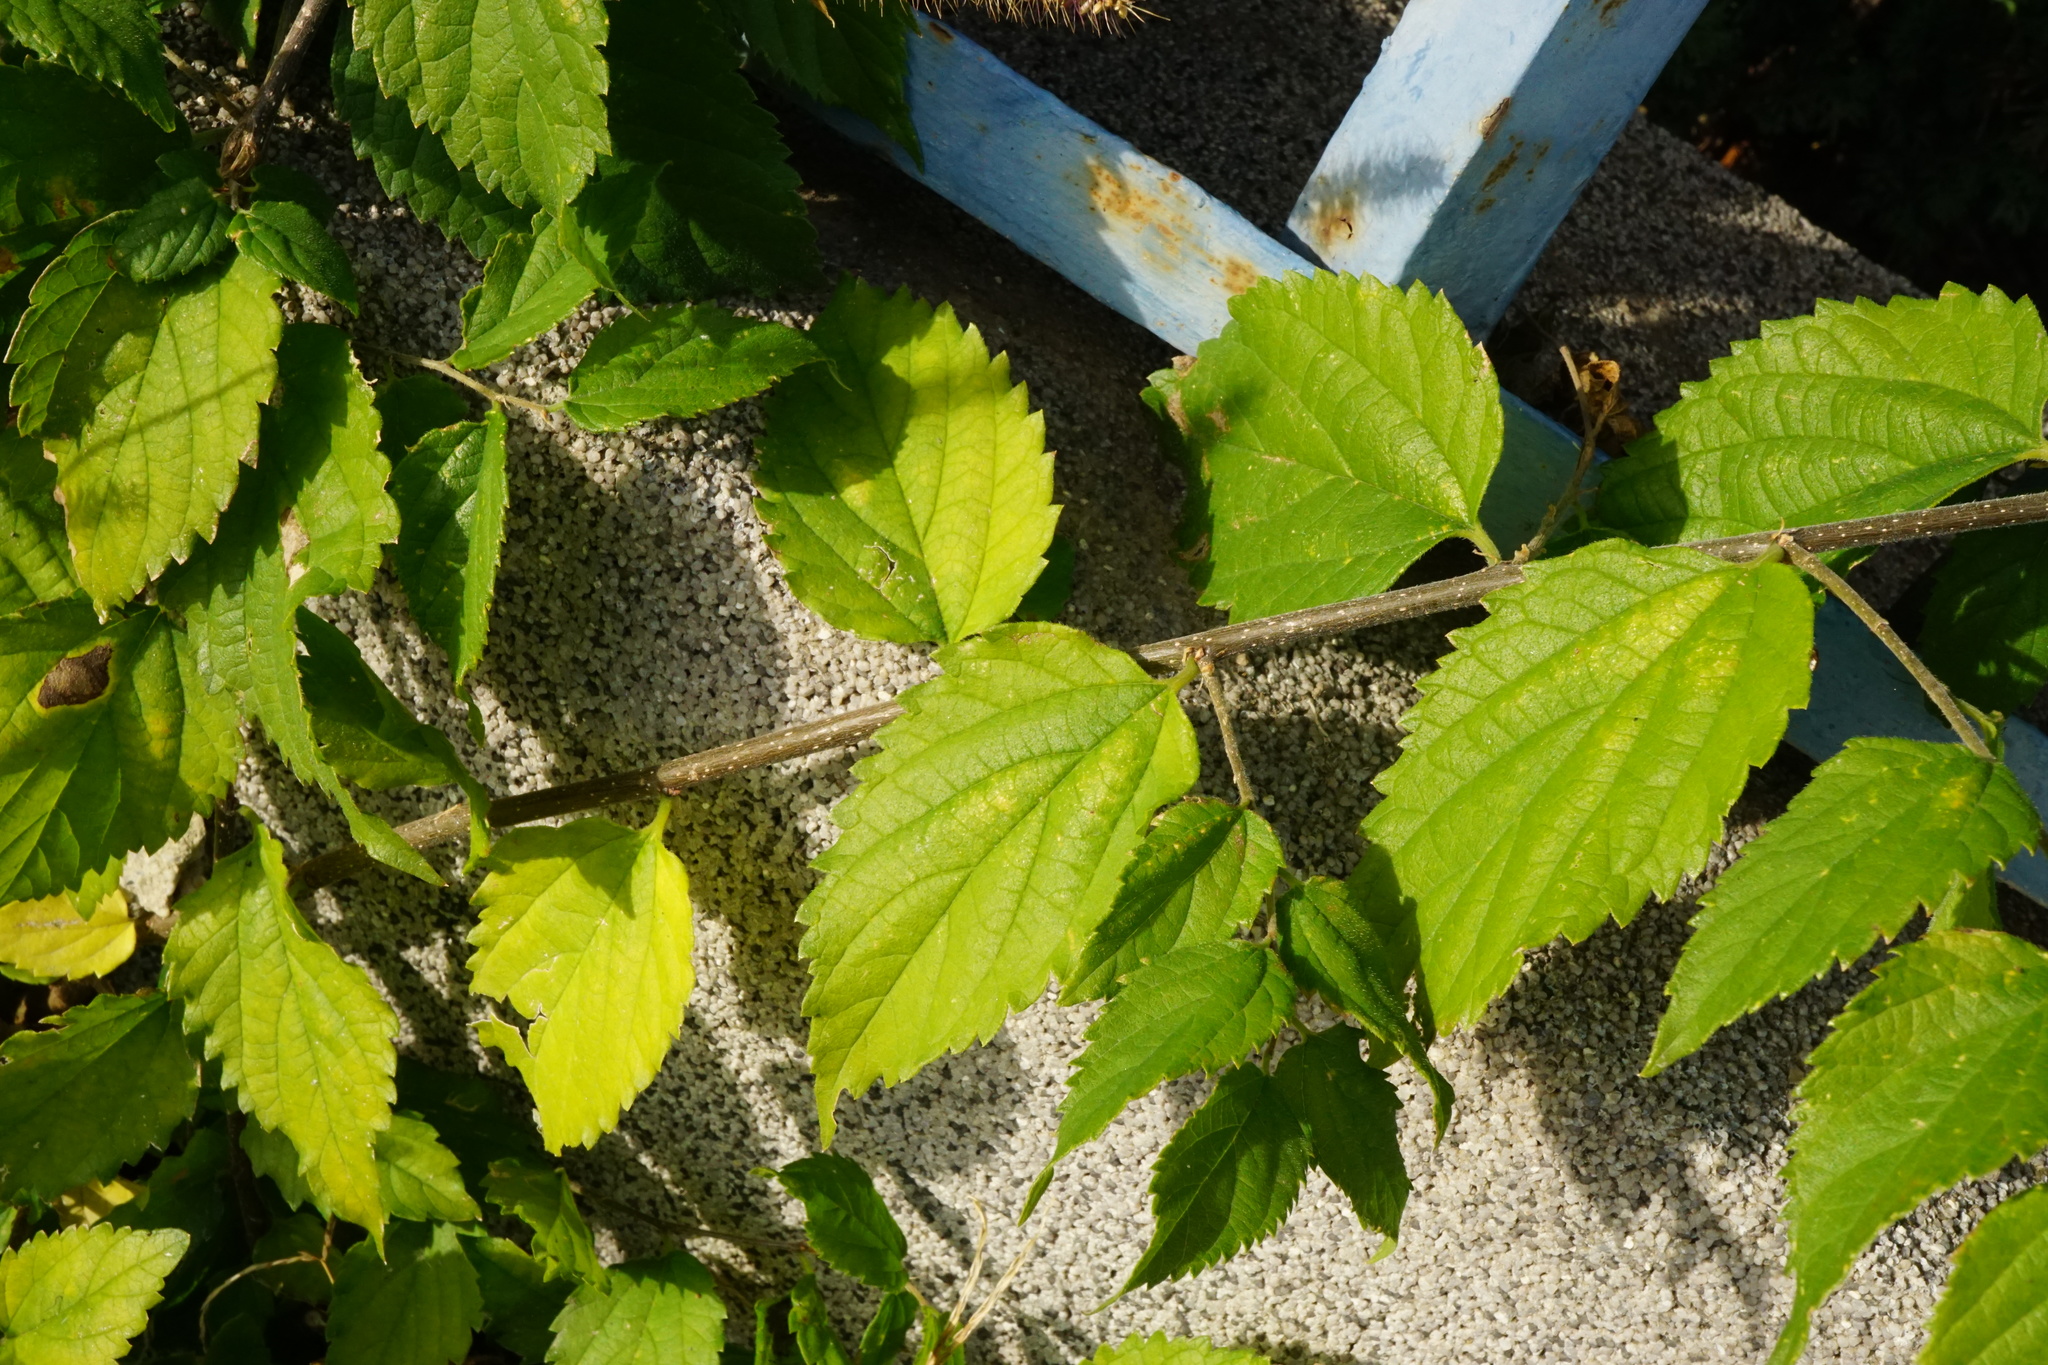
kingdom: Plantae
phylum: Tracheophyta
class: Magnoliopsida
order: Rosales
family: Cannabaceae
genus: Celtis
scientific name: Celtis australis
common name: European hackberry
